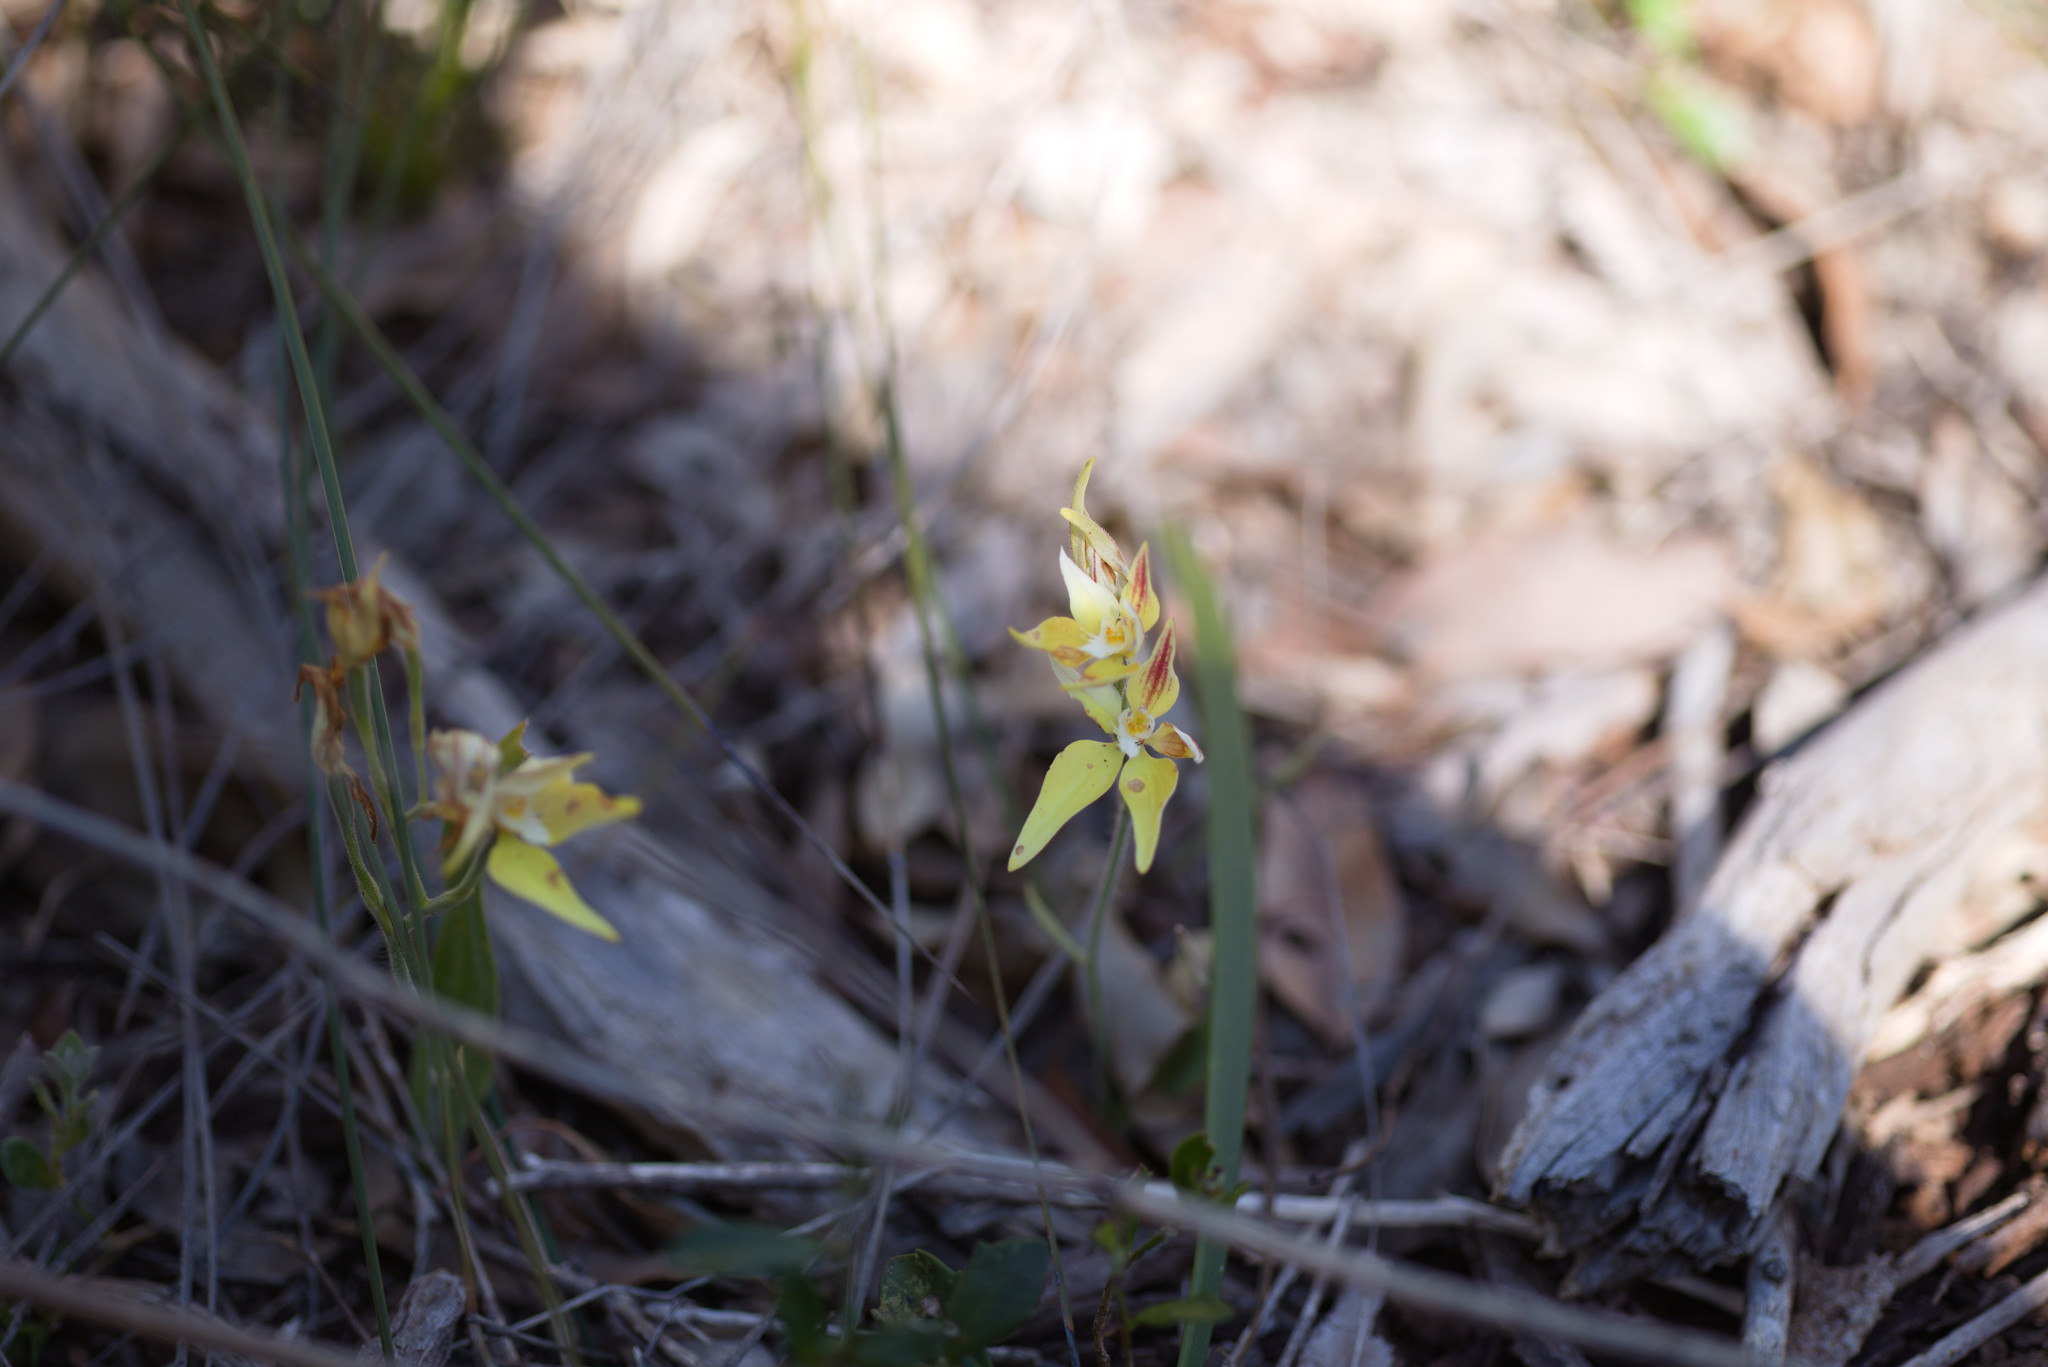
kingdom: Plantae
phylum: Tracheophyta
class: Liliopsida
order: Asparagales
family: Orchidaceae
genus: Caladenia
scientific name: Caladenia flava
